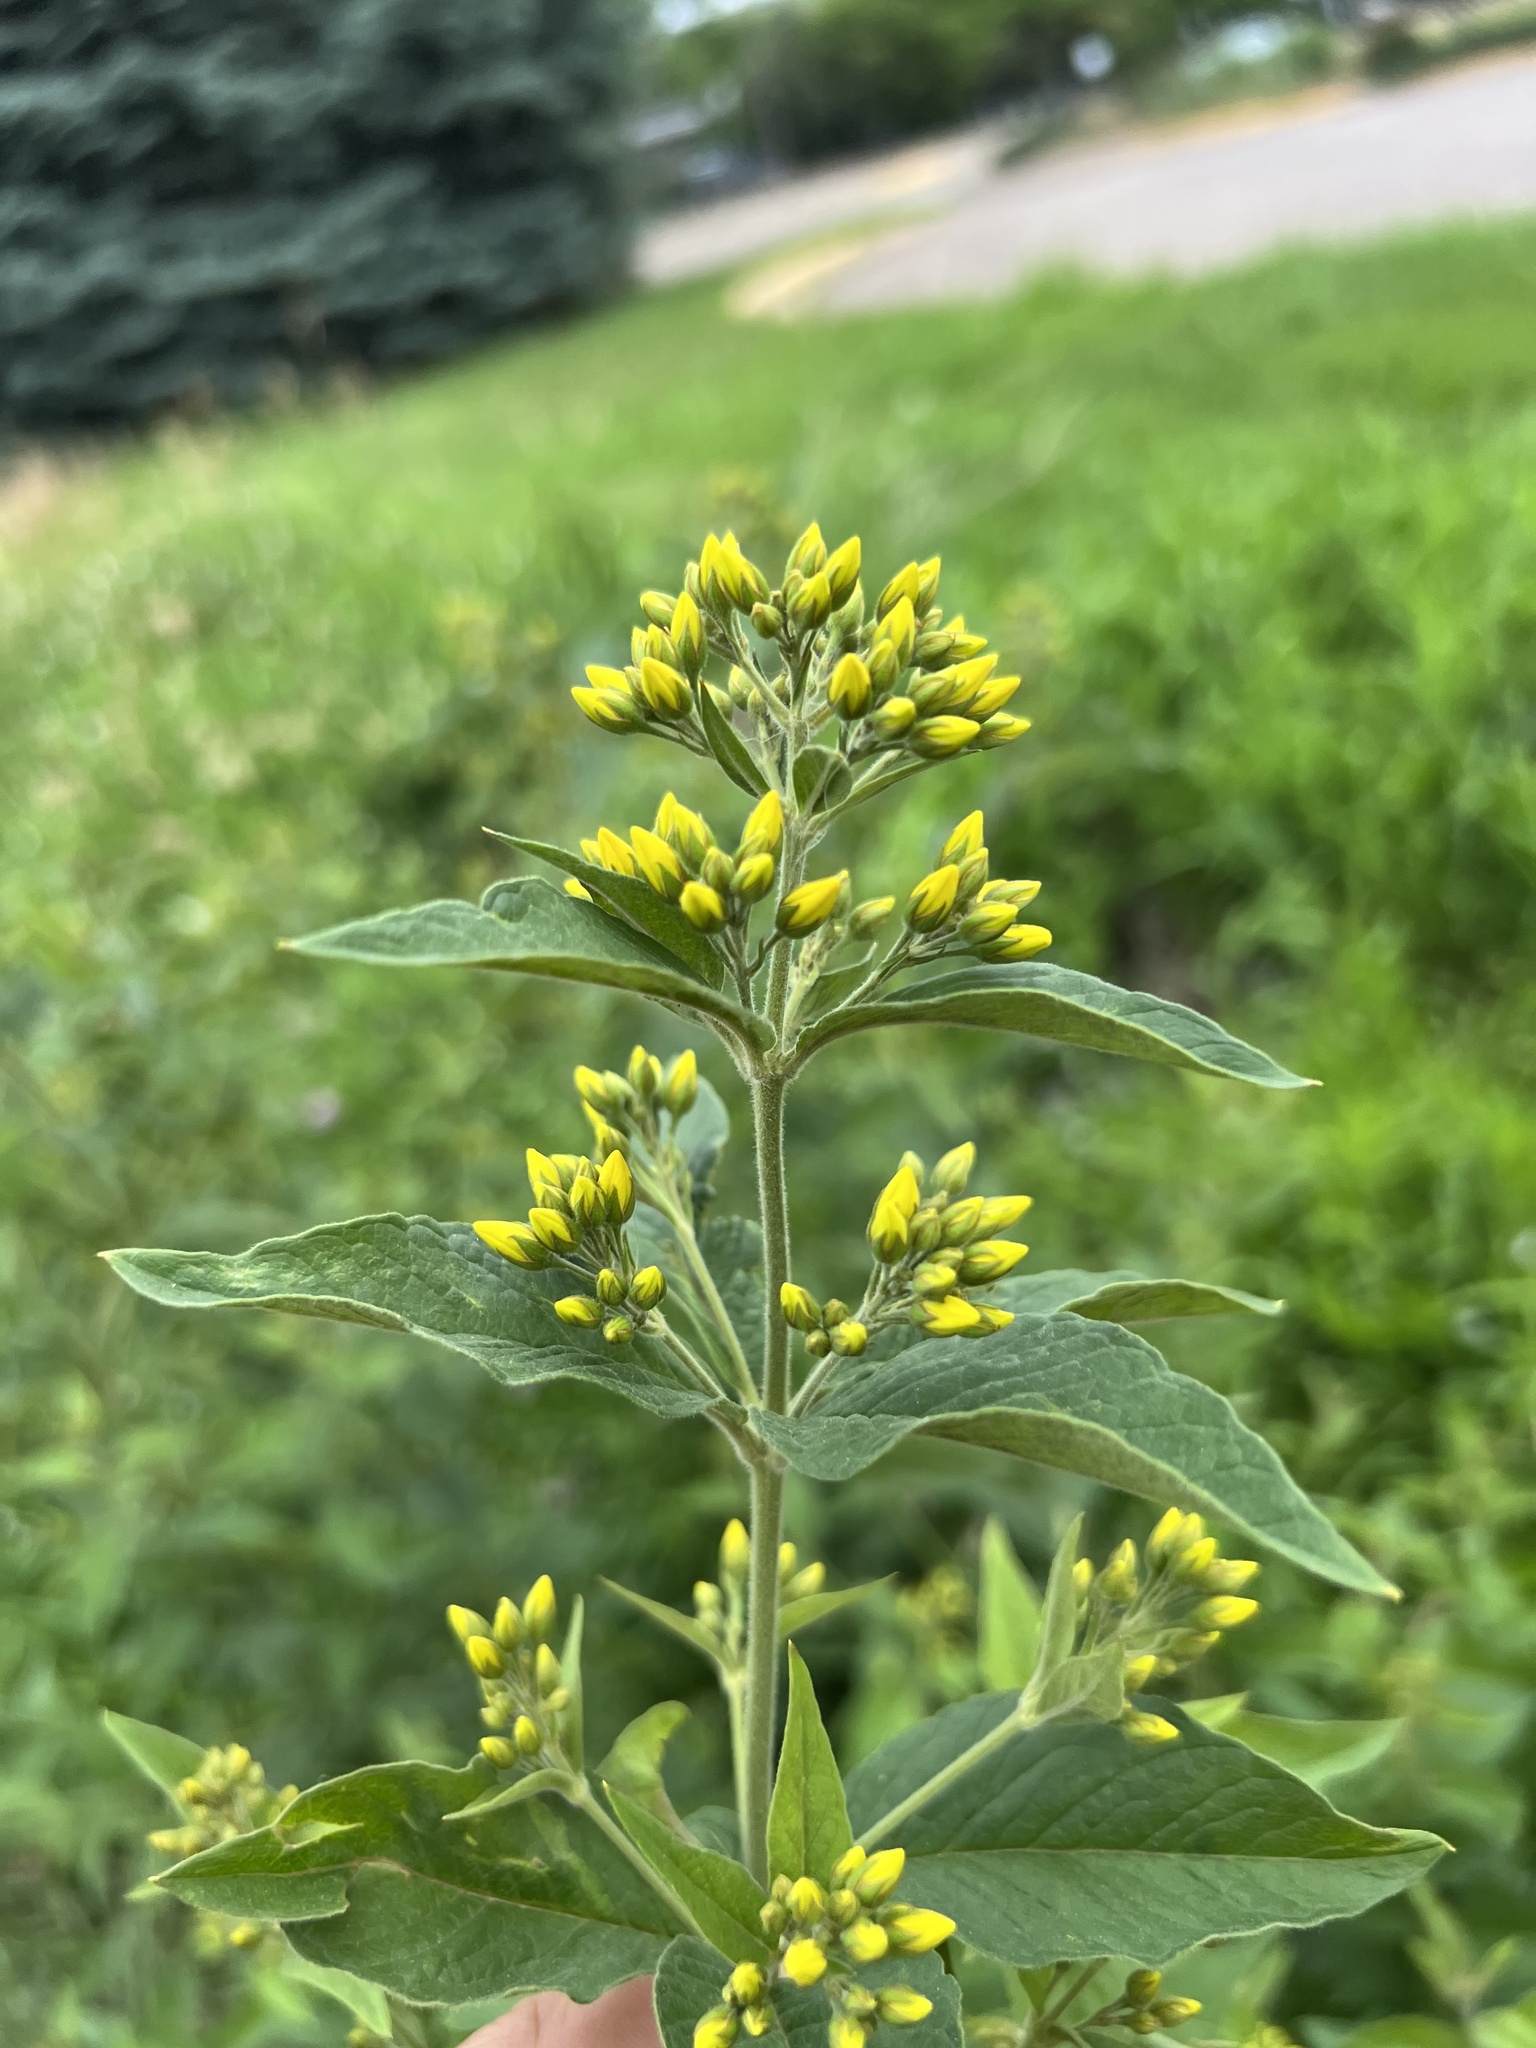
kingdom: Plantae
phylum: Tracheophyta
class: Magnoliopsida
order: Ericales
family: Primulaceae
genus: Lysimachia
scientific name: Lysimachia vulgaris
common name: Yellow loosestrife
